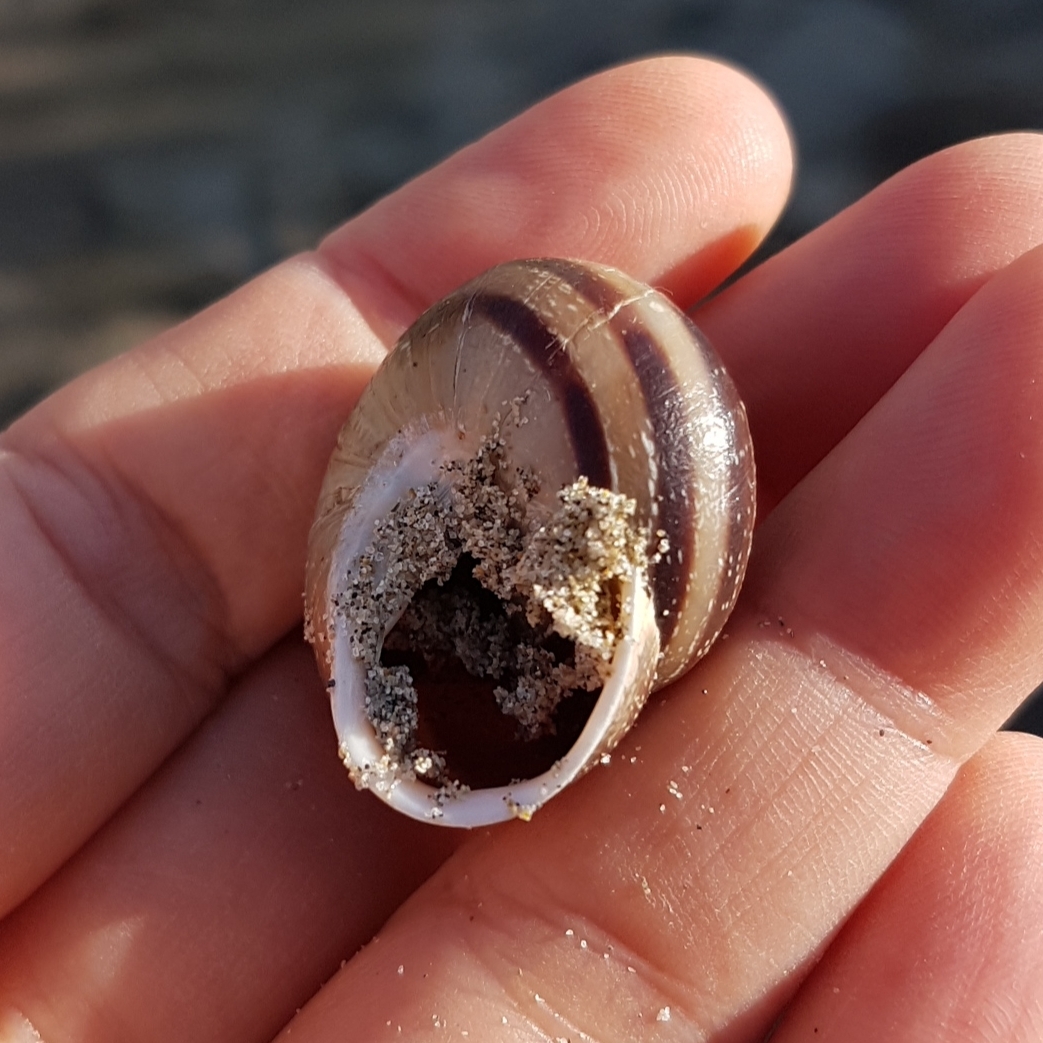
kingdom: Animalia
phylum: Mollusca
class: Gastropoda
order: Stylommatophora
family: Helicidae
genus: Eobania
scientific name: Eobania vermiculata
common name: Chocolateband snail
